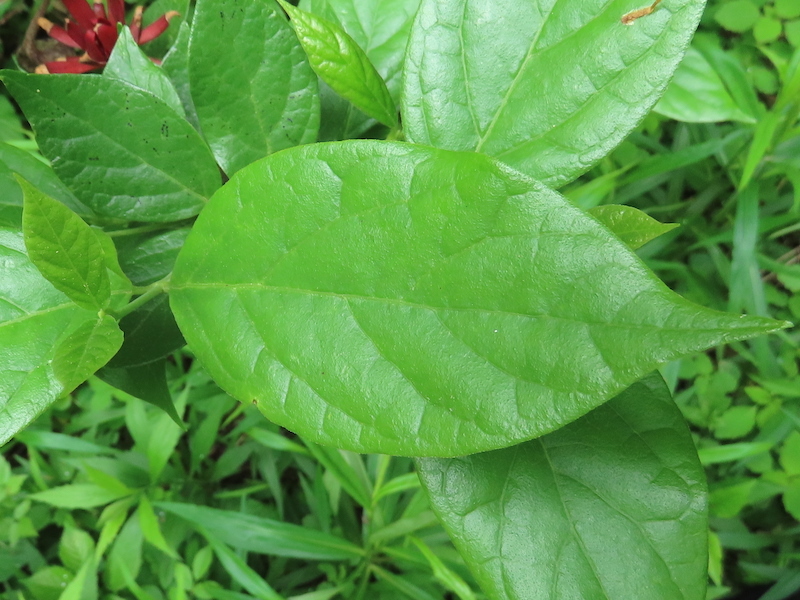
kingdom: Plantae
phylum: Tracheophyta
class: Magnoliopsida
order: Laurales
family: Calycanthaceae
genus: Calycanthus
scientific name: Calycanthus floridus
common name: Carolina-allspice
